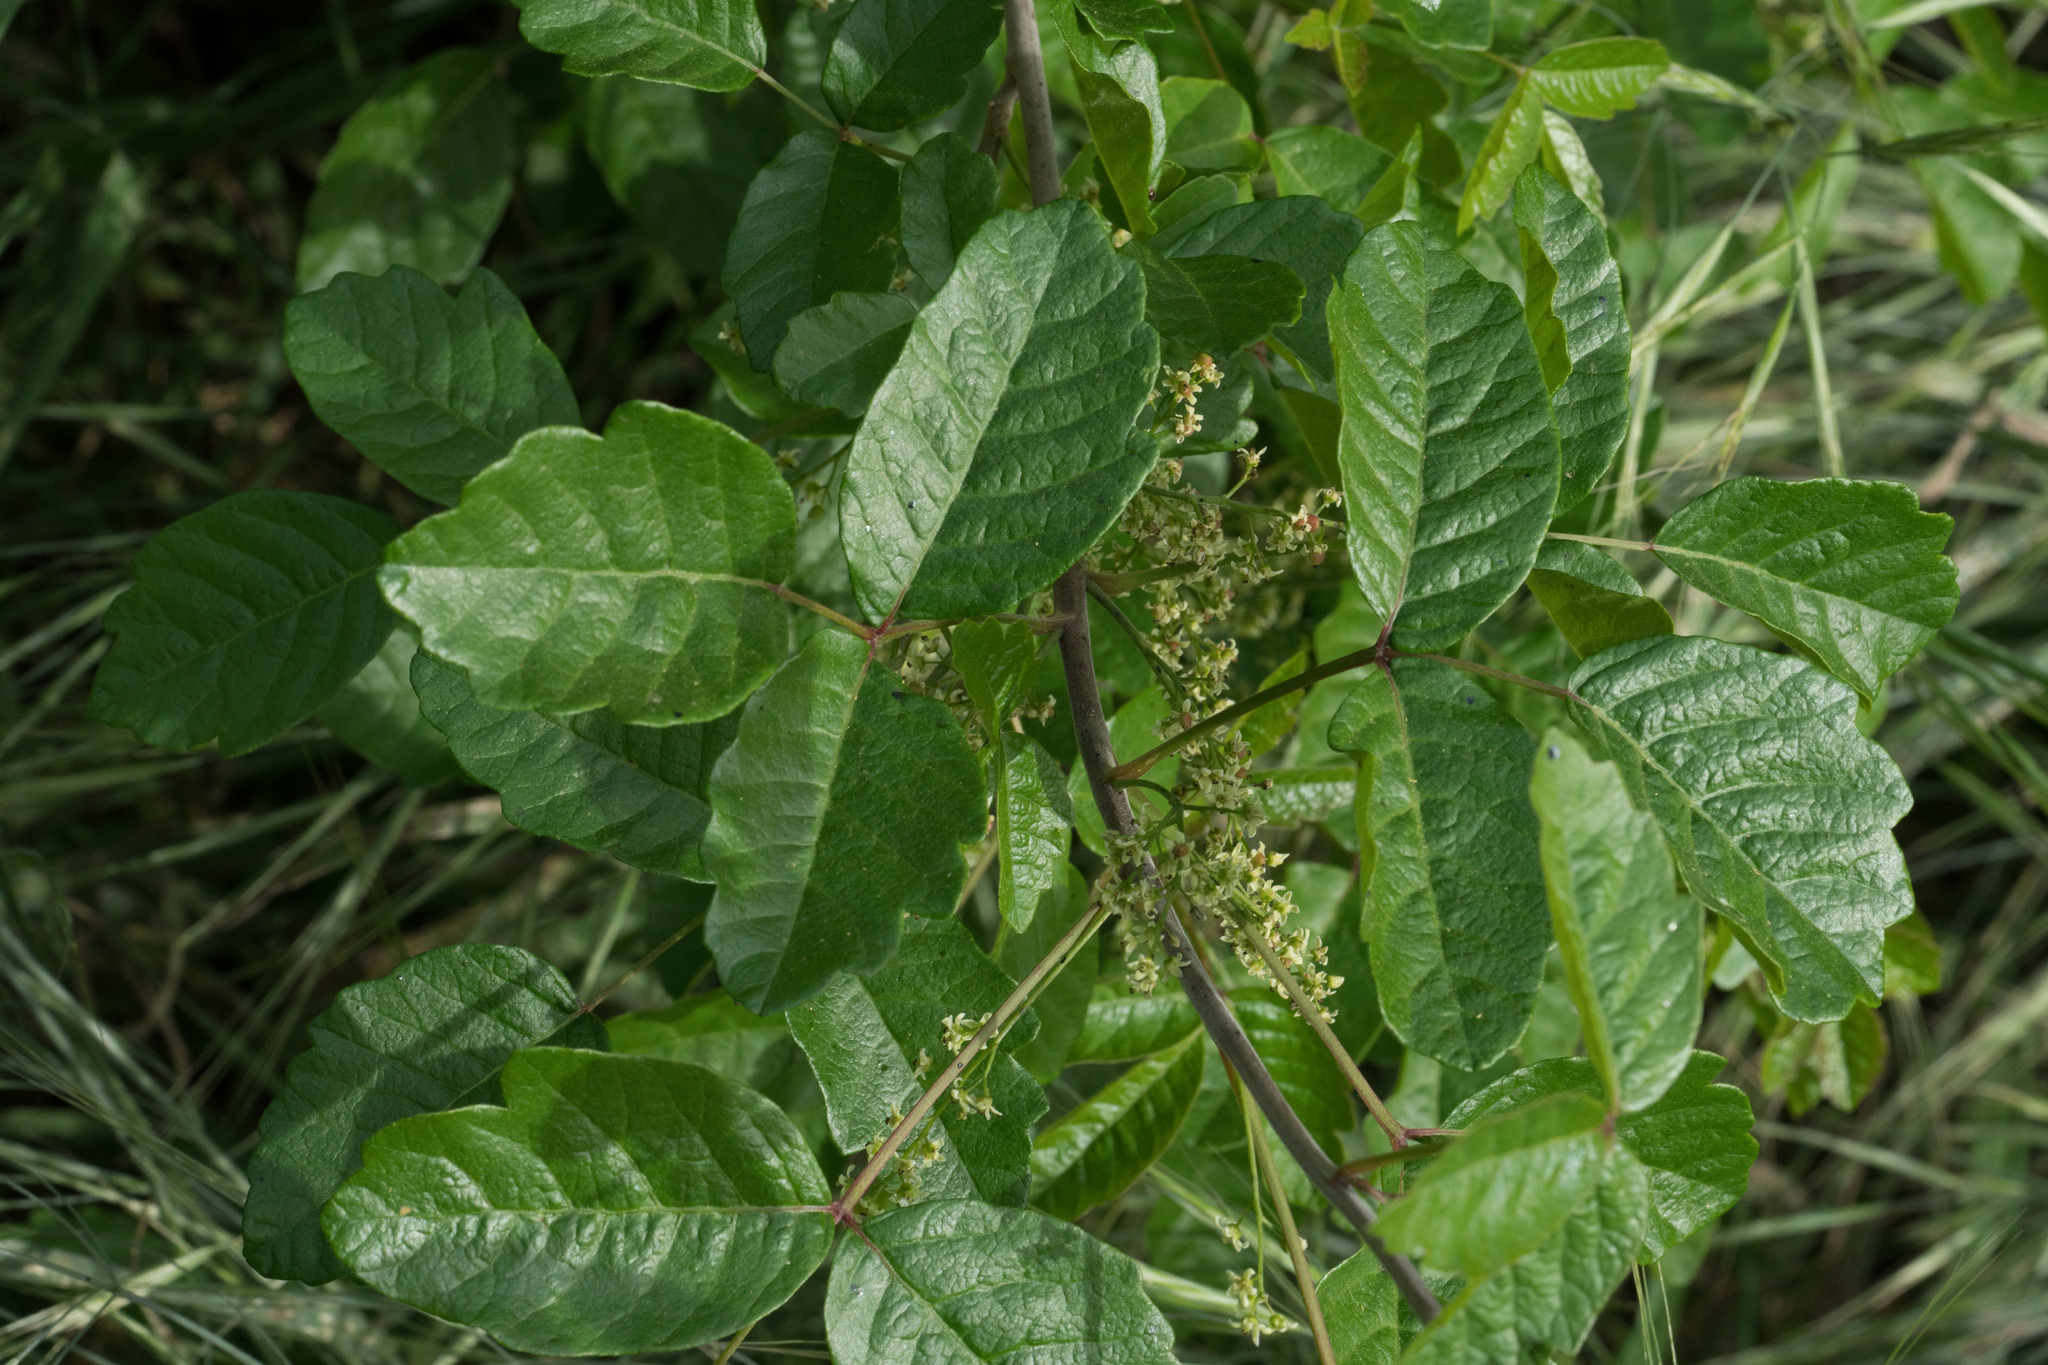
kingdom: Plantae
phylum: Tracheophyta
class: Magnoliopsida
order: Sapindales
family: Anacardiaceae
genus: Toxicodendron
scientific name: Toxicodendron diversilobum
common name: Pacific poison-oak
